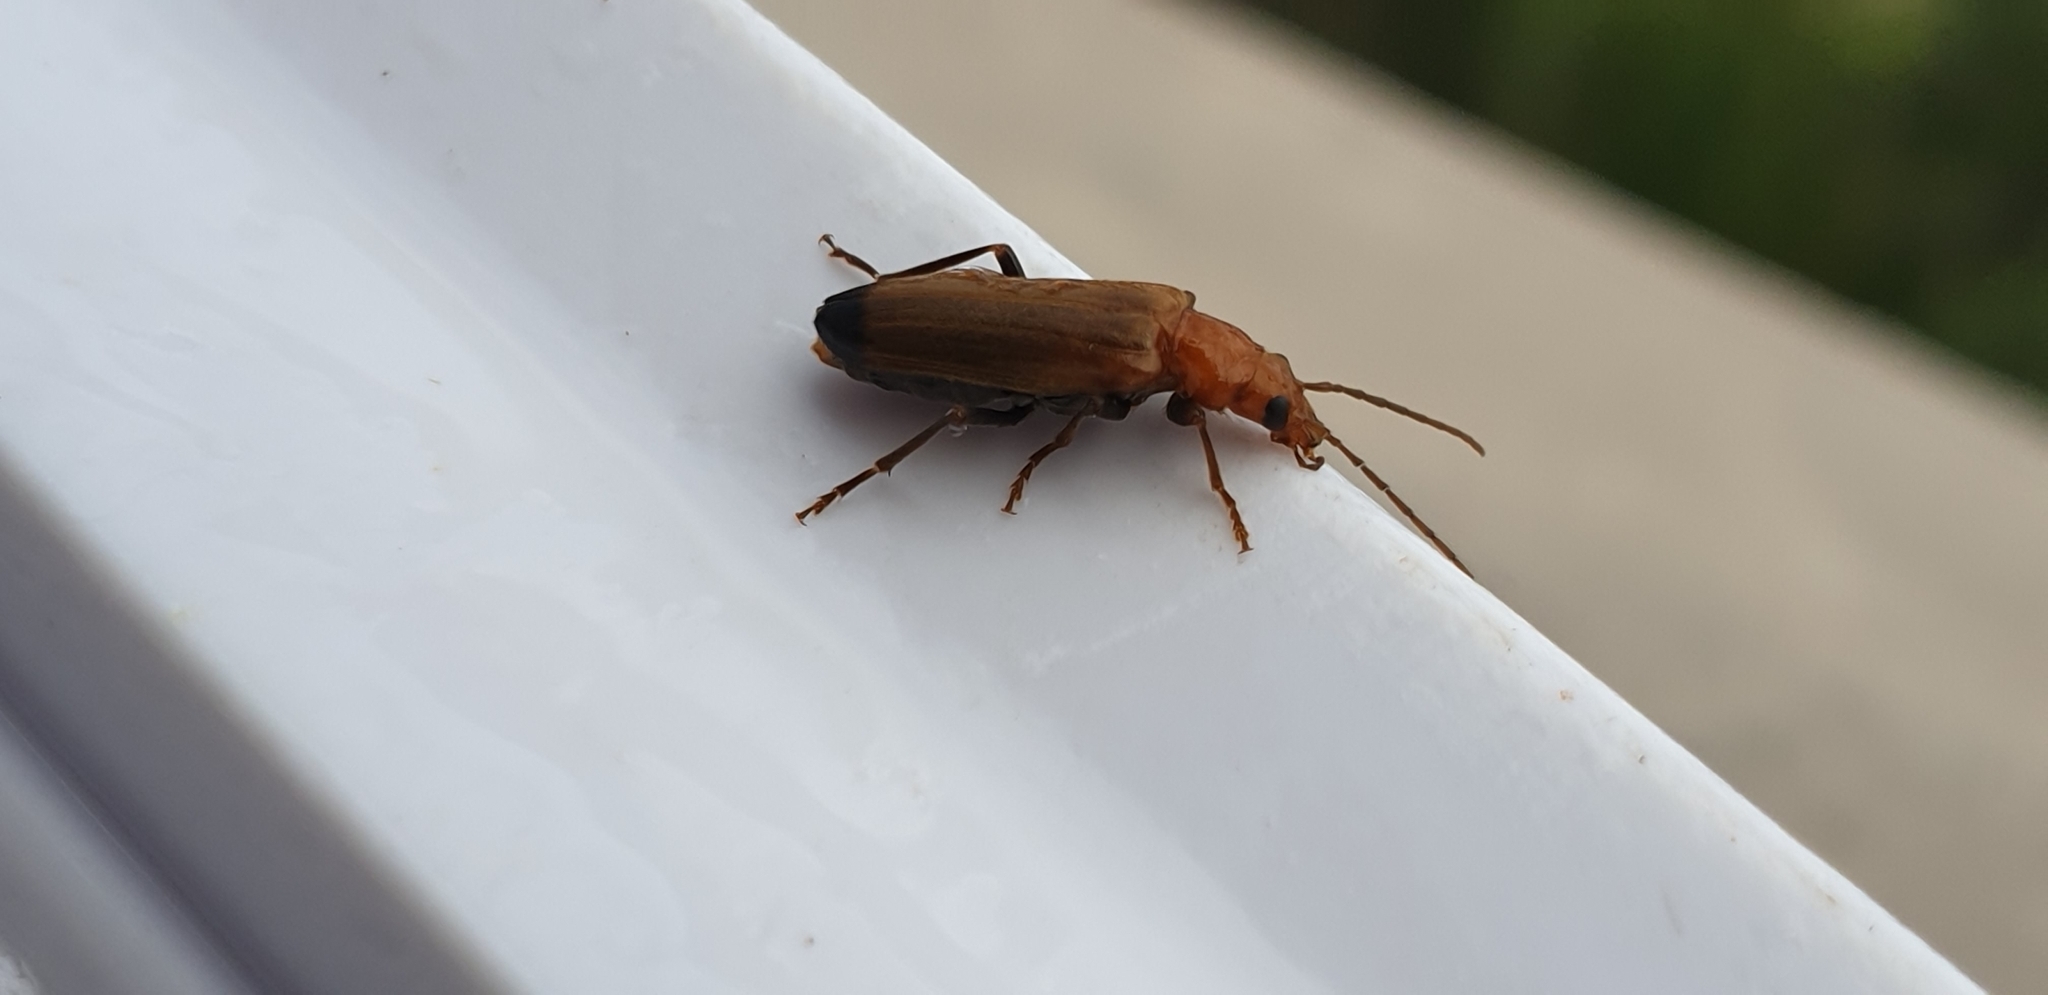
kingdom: Animalia
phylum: Arthropoda
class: Insecta
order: Coleoptera
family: Oedemeridae
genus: Nacerdes
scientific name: Nacerdes melanura
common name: Wharf borer
